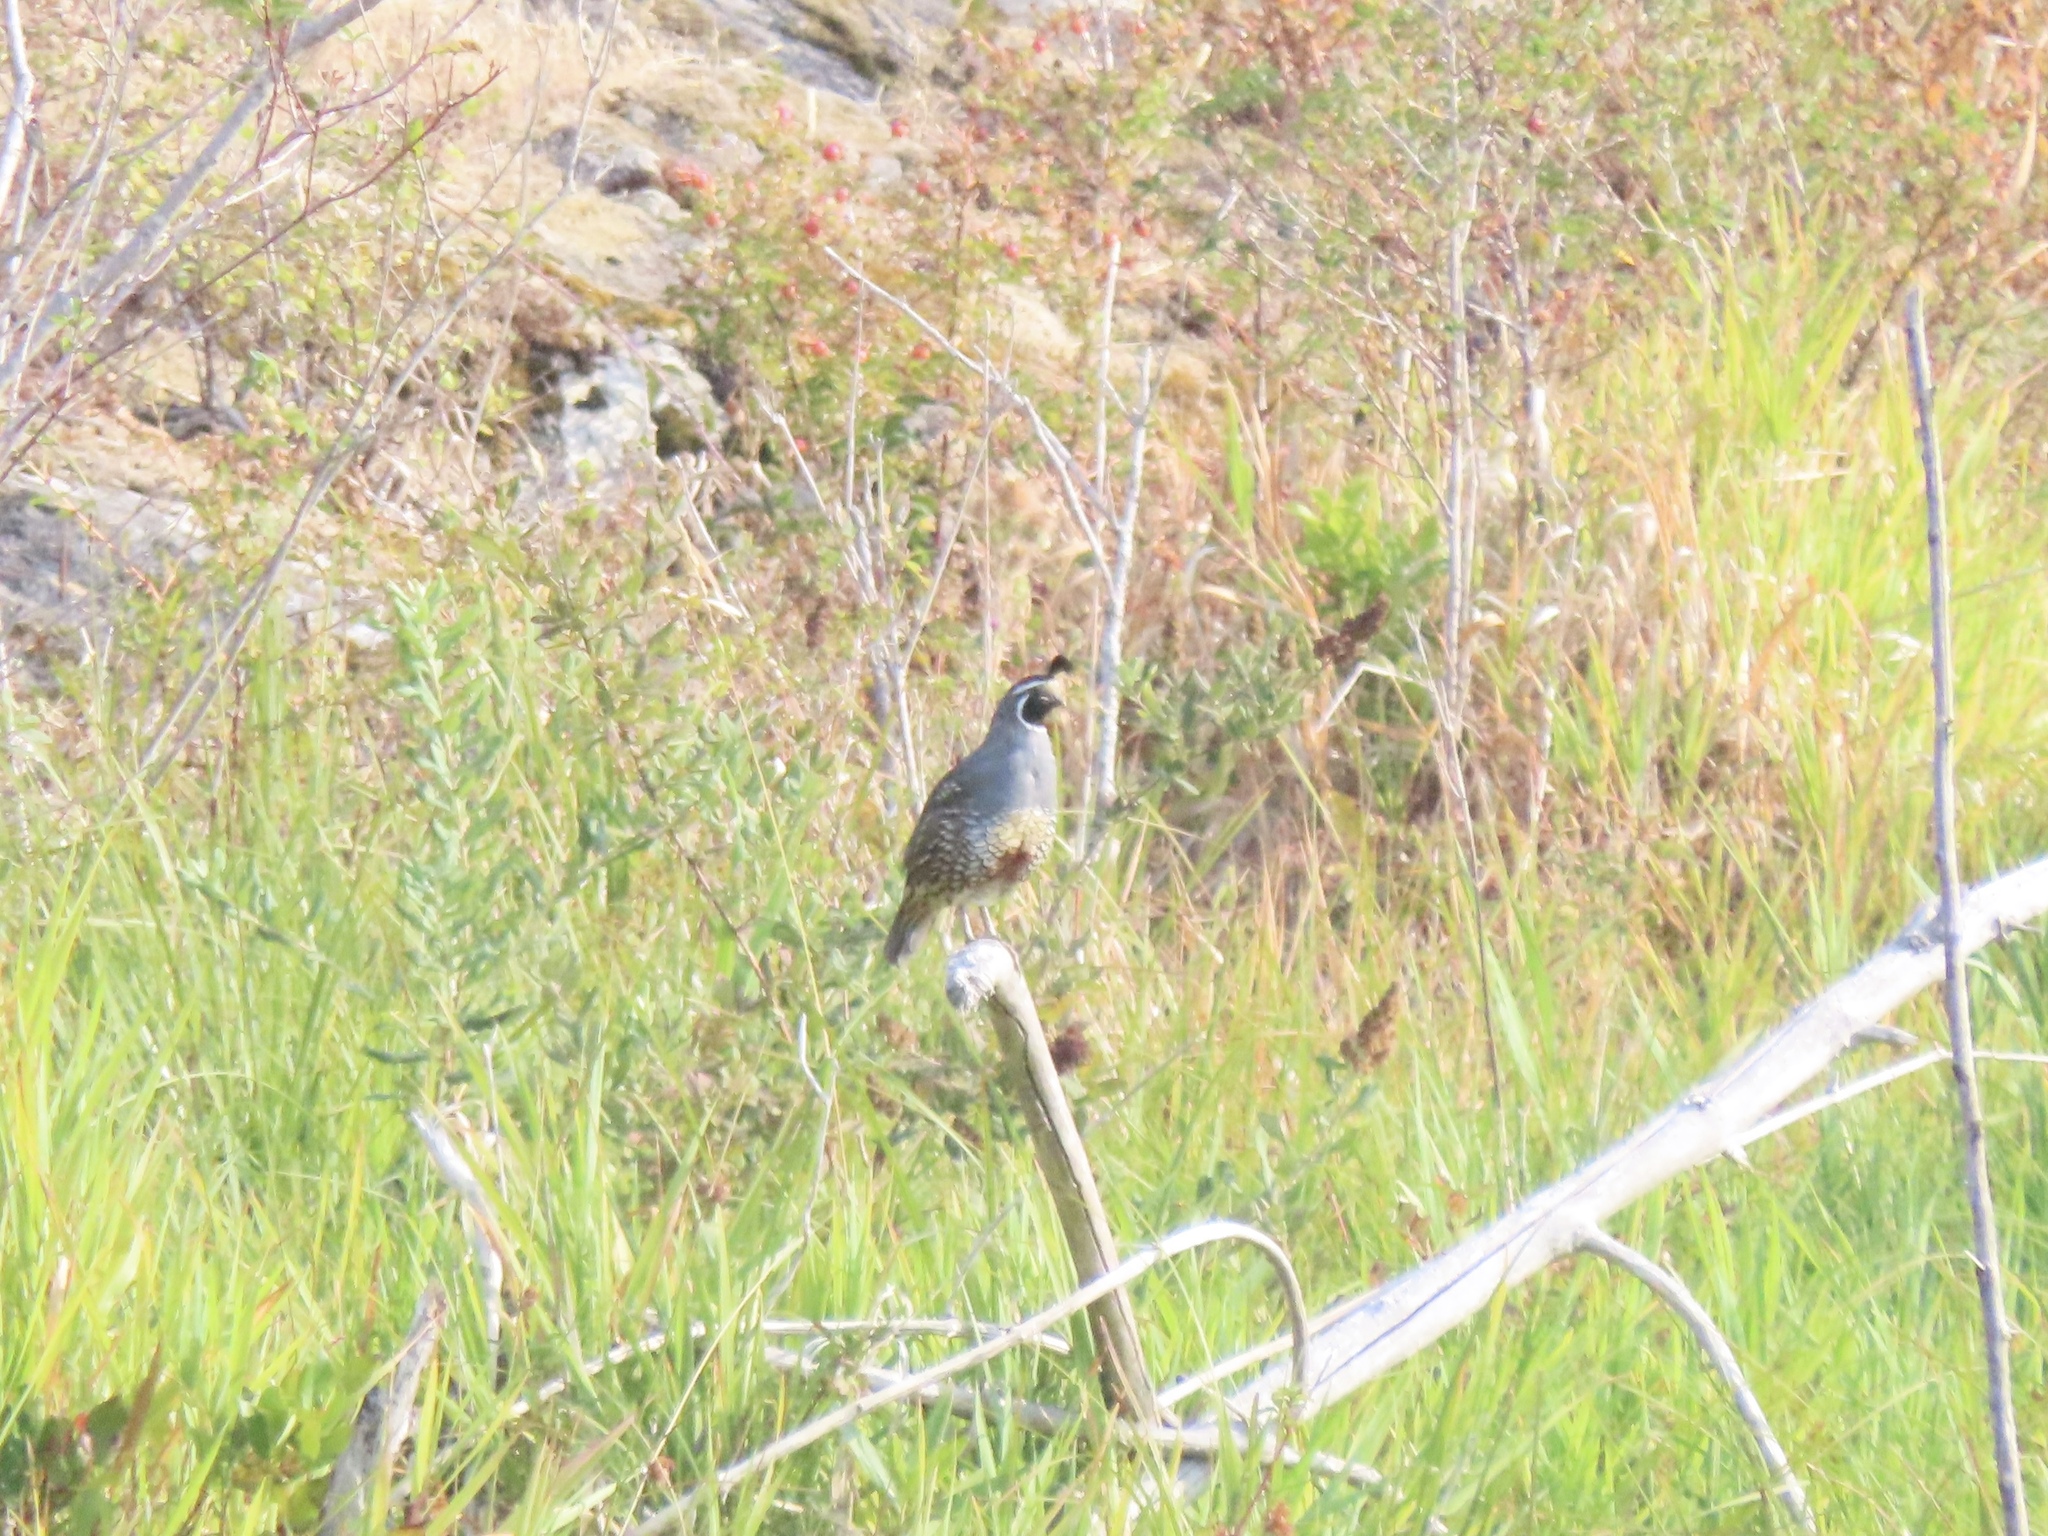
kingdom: Animalia
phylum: Chordata
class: Aves
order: Galliformes
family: Odontophoridae
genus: Callipepla
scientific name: Callipepla californica
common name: California quail
